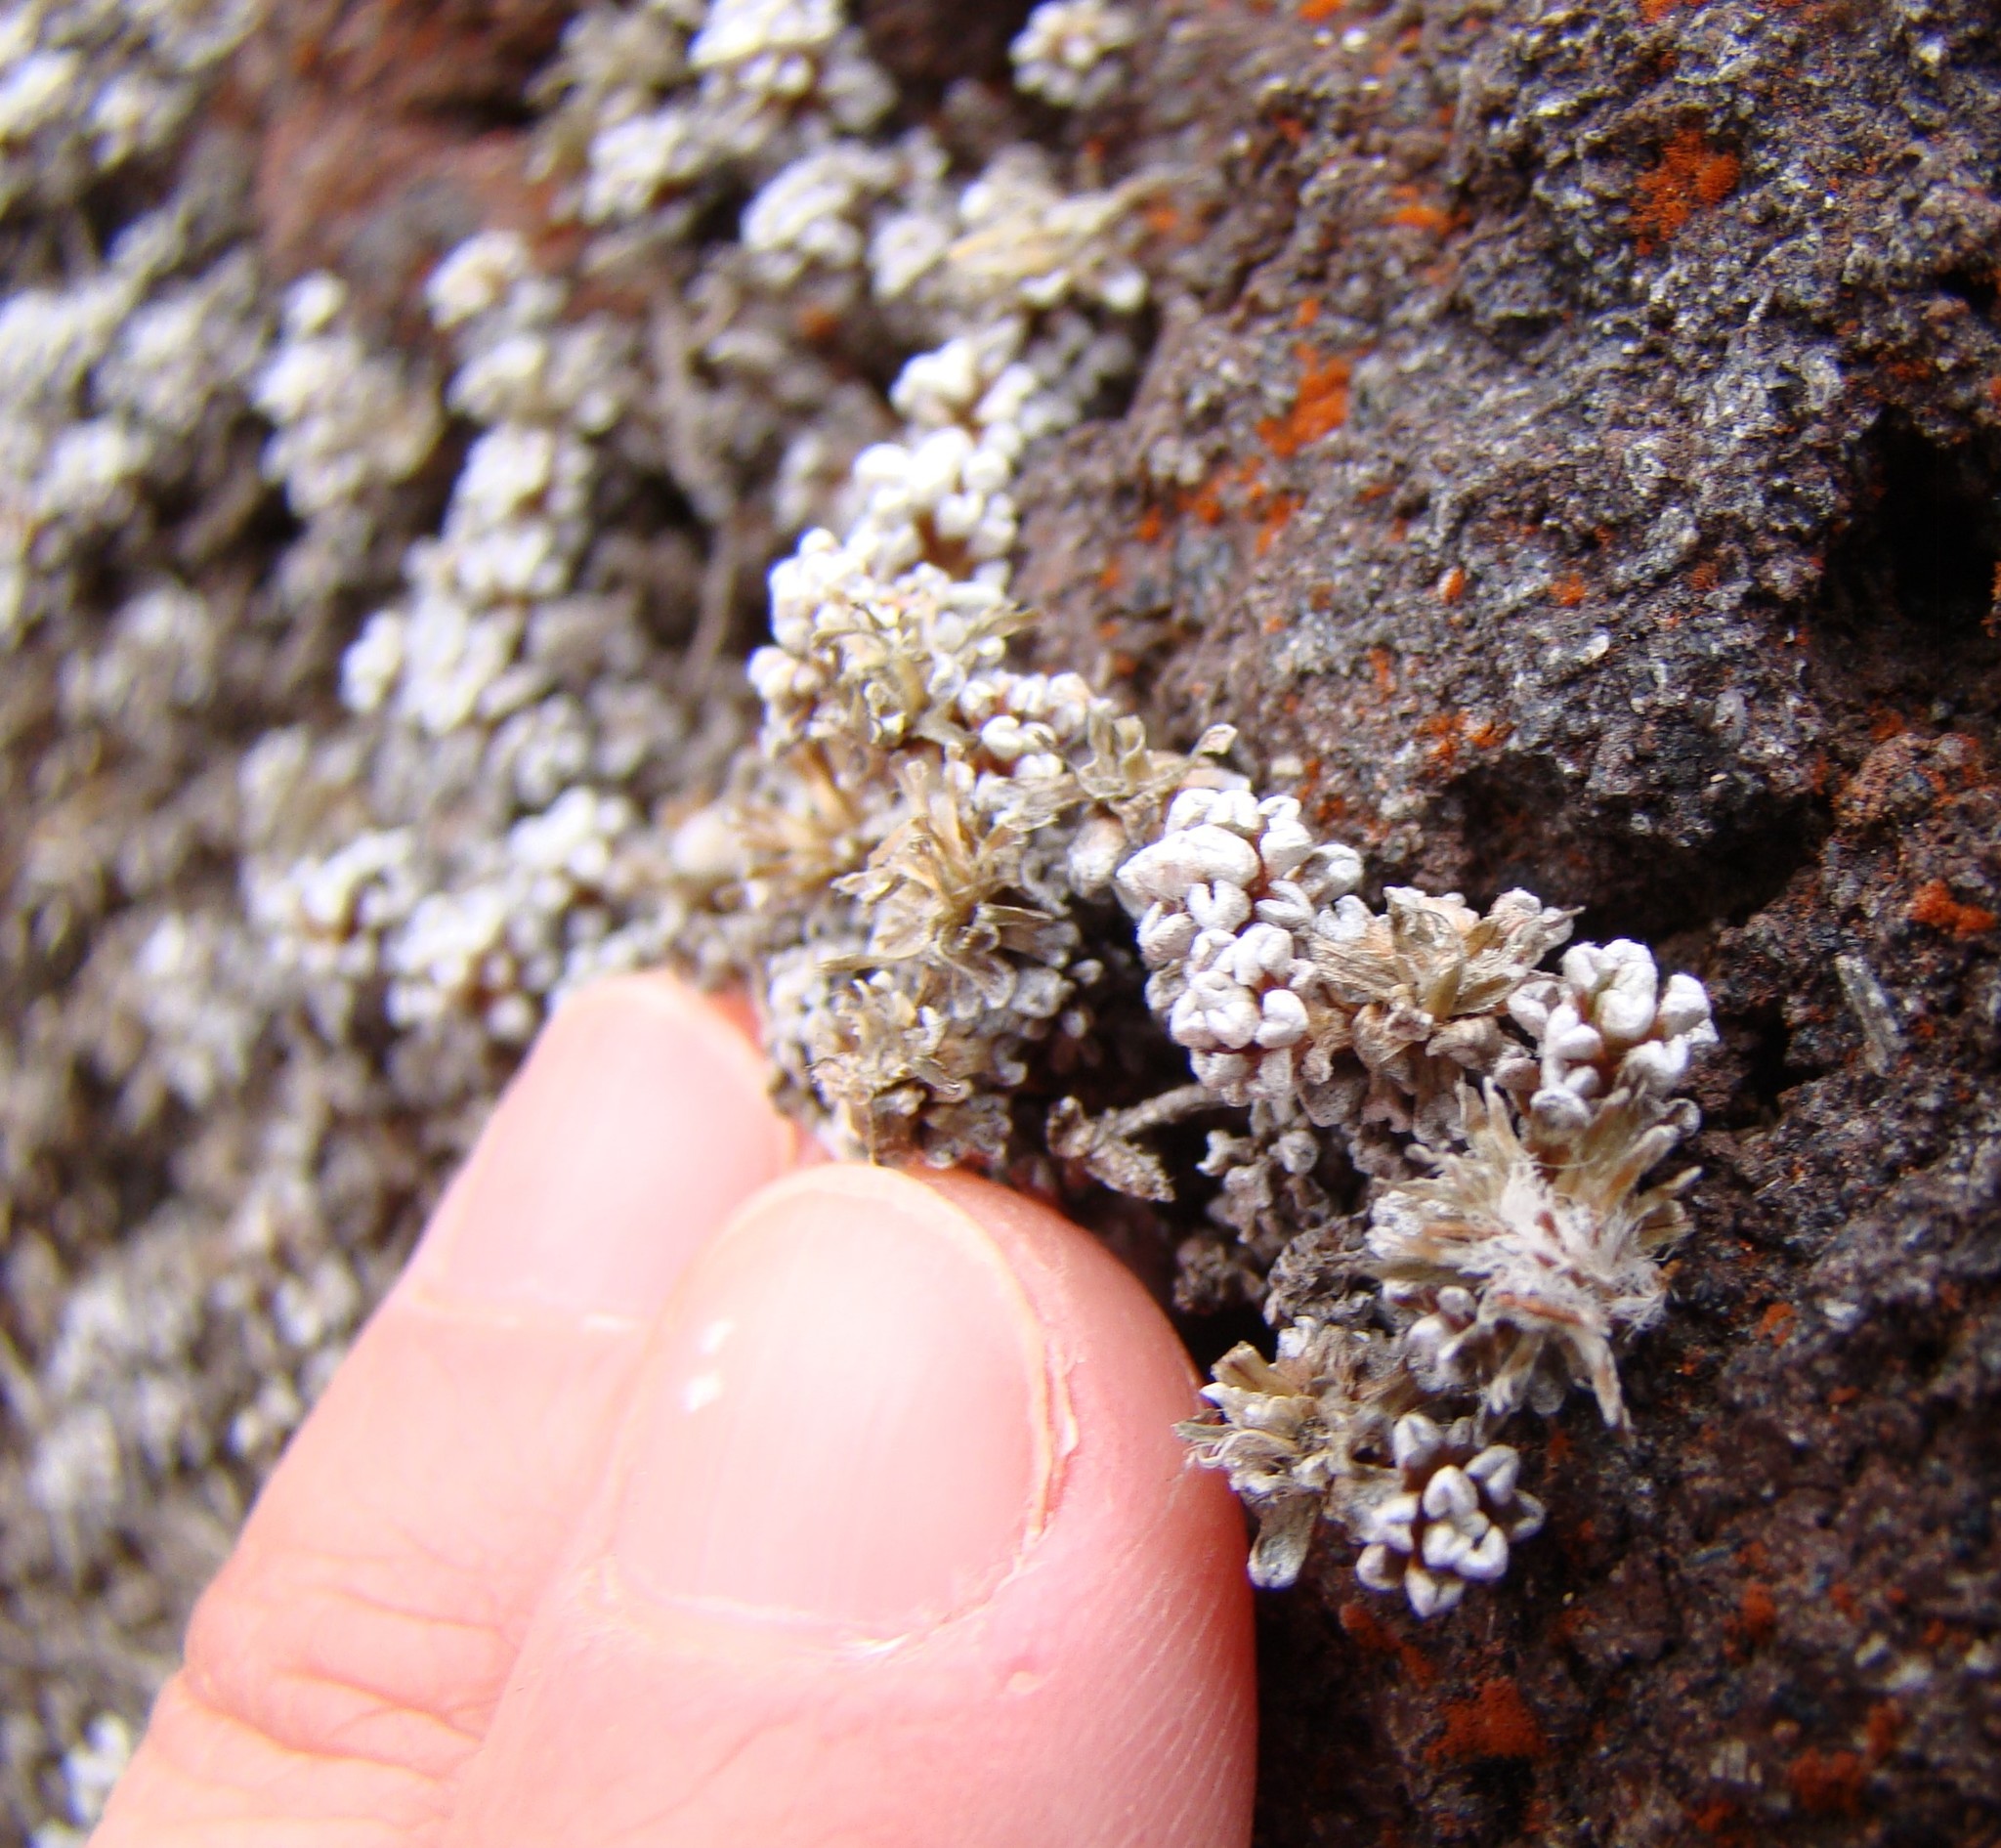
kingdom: Plantae
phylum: Tracheophyta
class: Magnoliopsida
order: Asterales
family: Asteraceae
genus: Raoulia
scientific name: Raoulia albosericea
